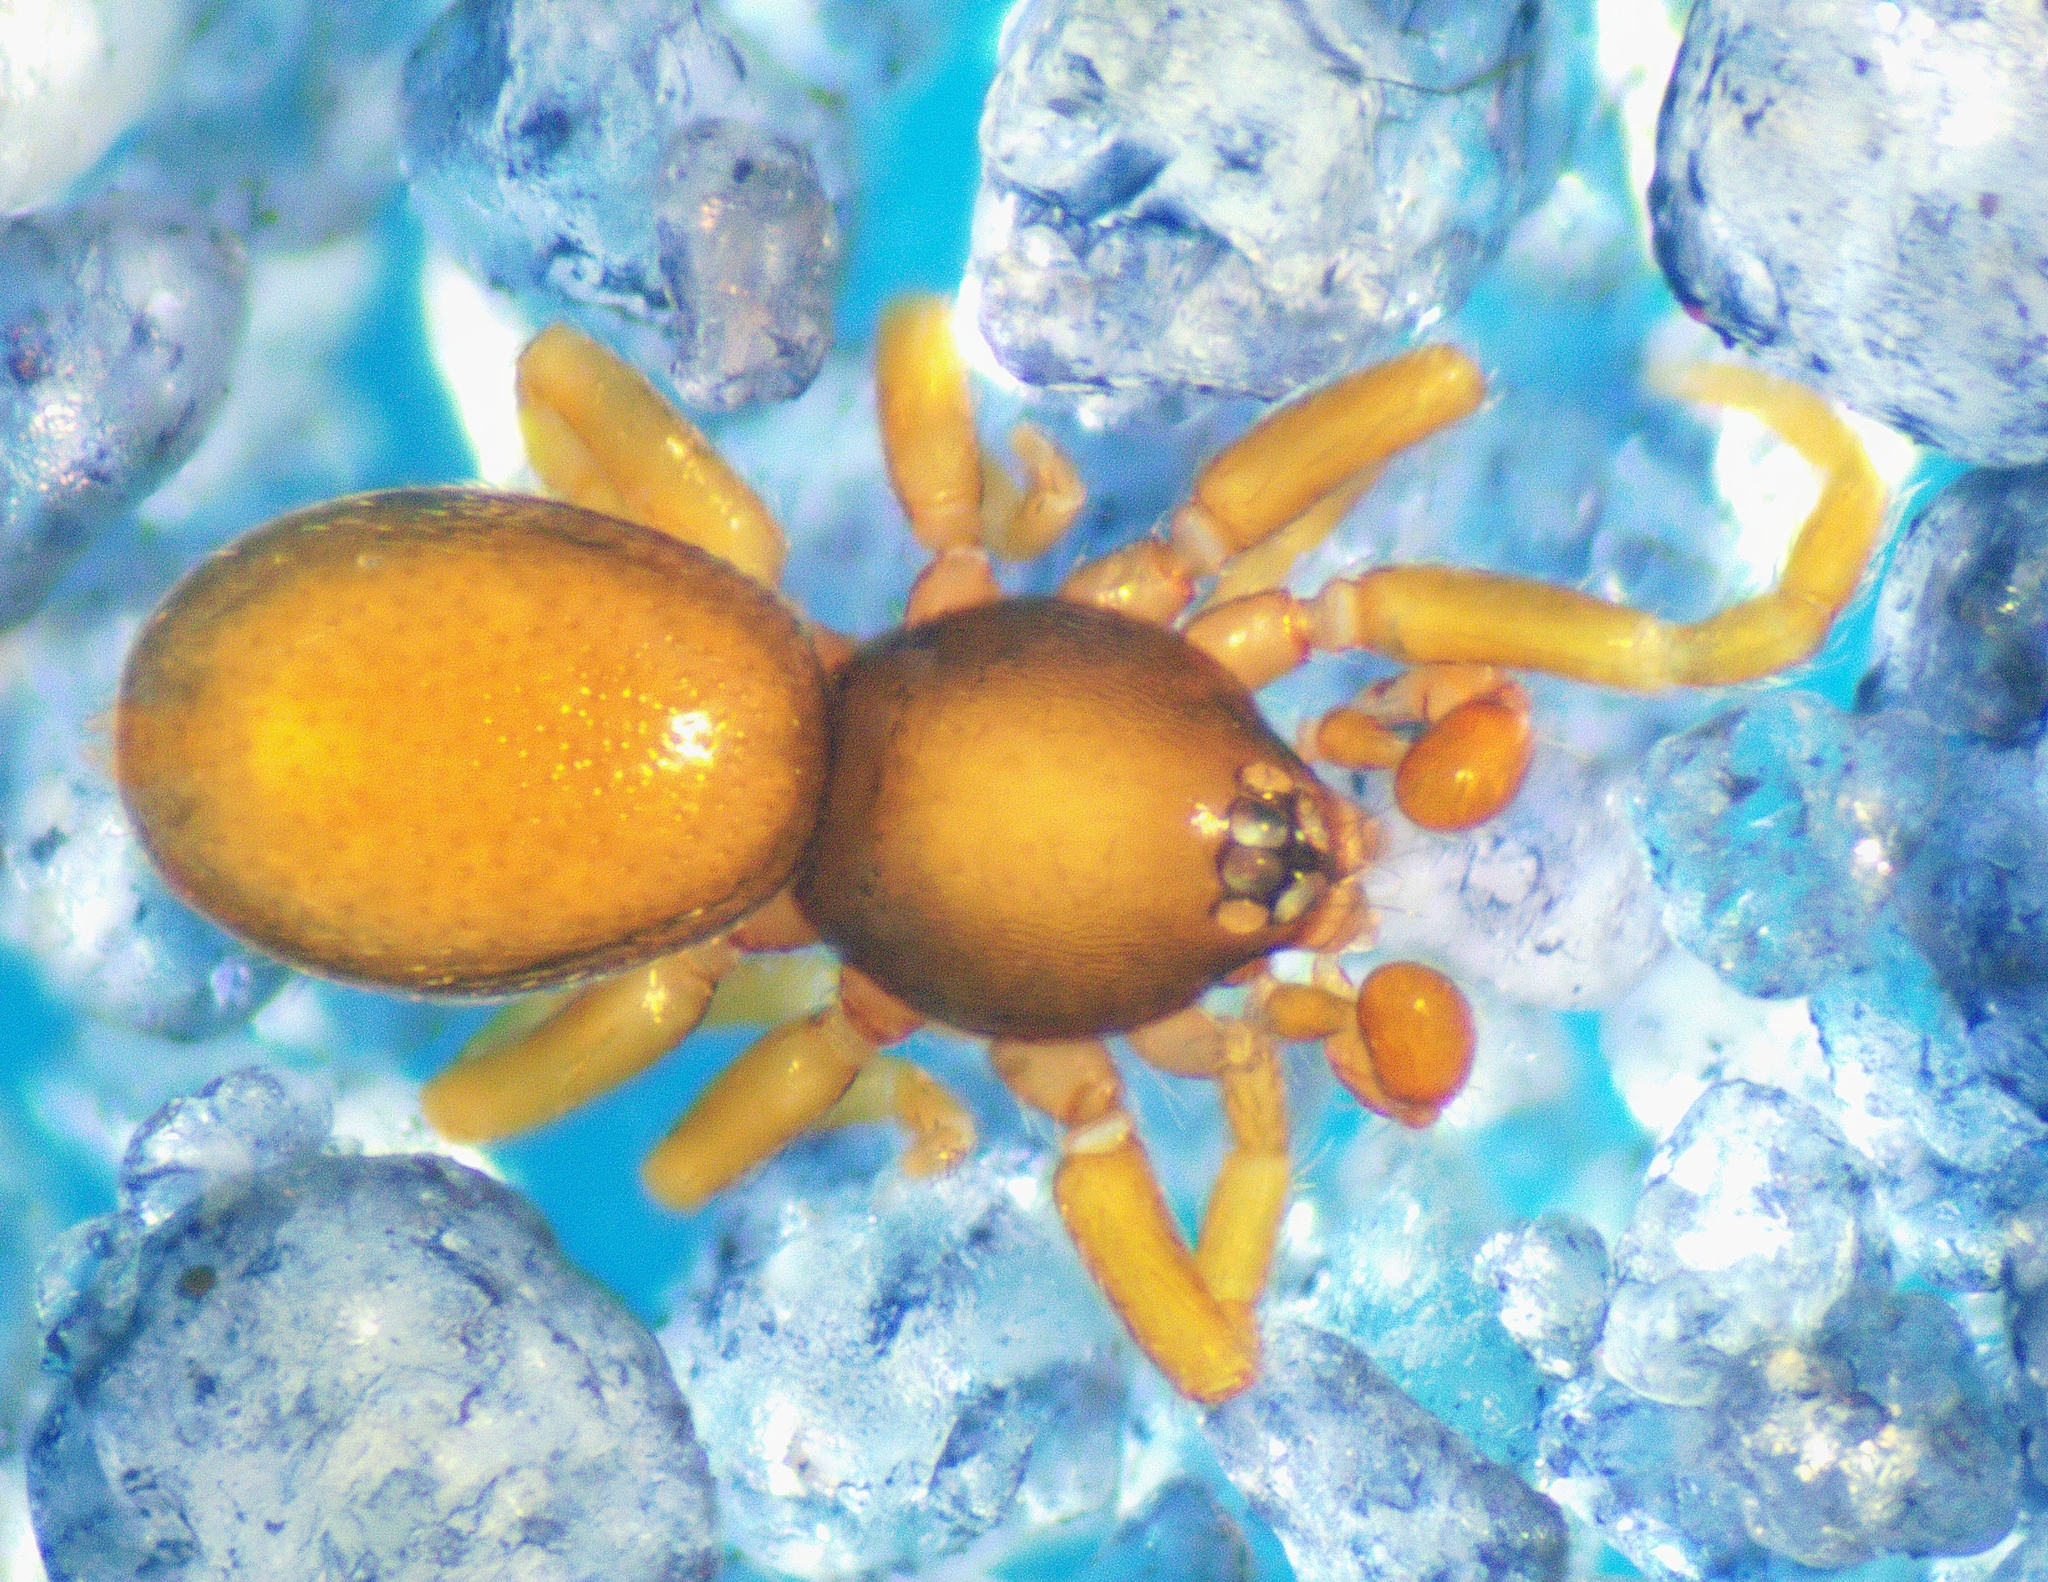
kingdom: Animalia
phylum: Arthropoda
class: Arachnida
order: Araneae
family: Oonopidae
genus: Opopaea
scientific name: Opopaea
